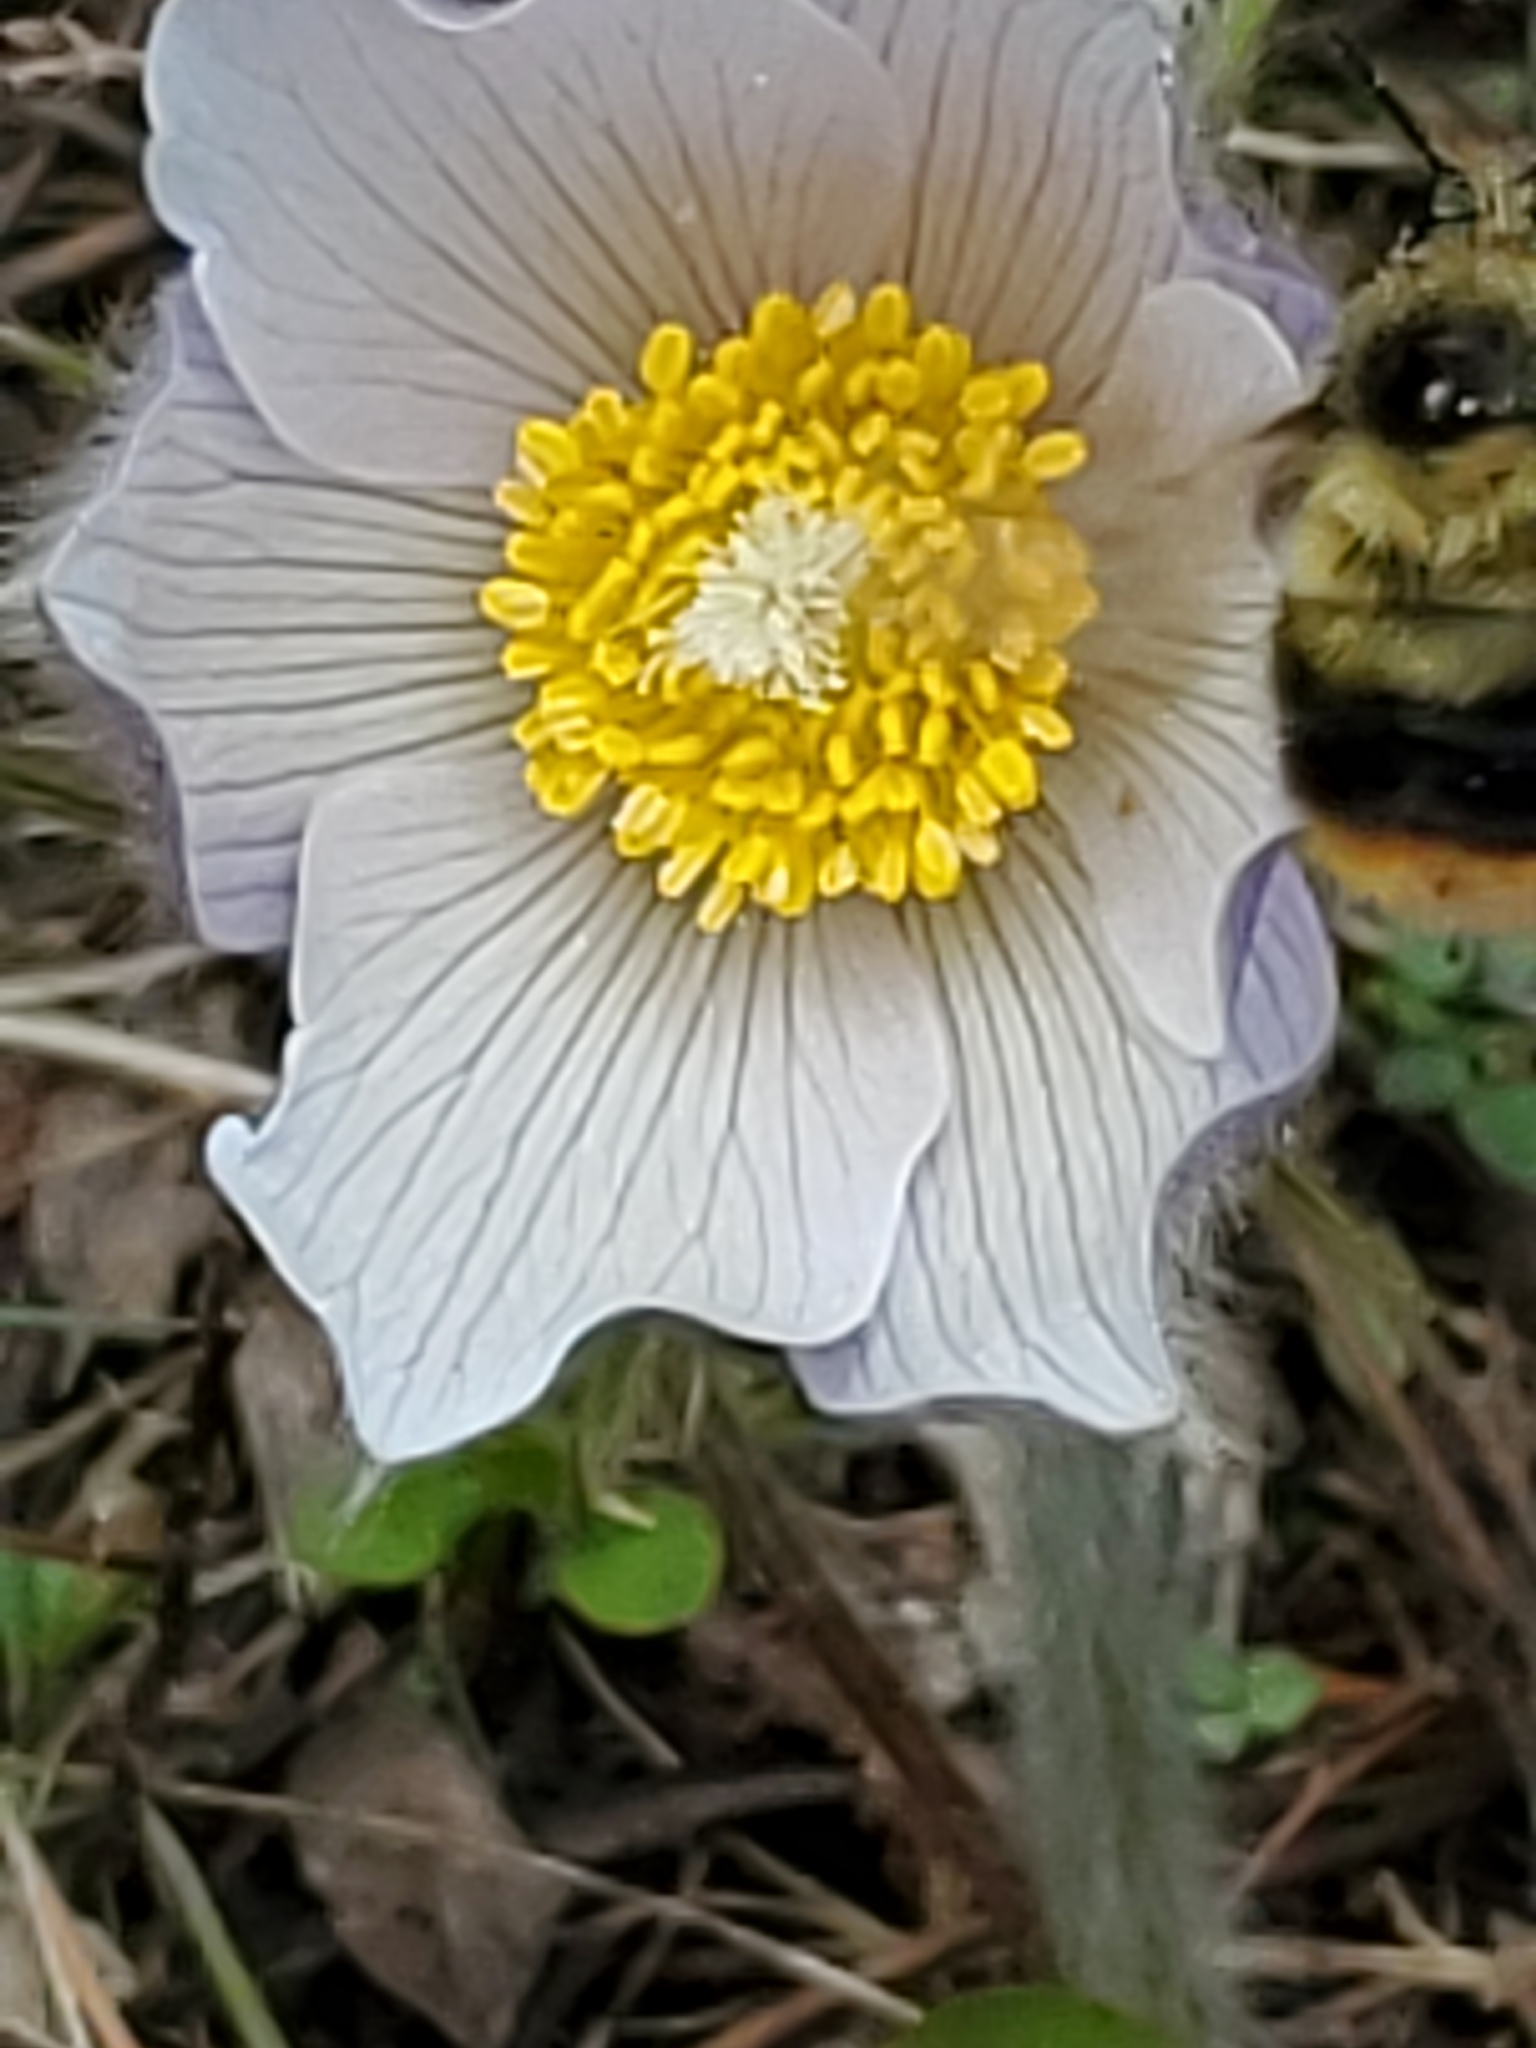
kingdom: Plantae
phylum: Tracheophyta
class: Magnoliopsida
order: Ranunculales
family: Ranunculaceae
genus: Pulsatilla
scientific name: Pulsatilla nuttalliana
